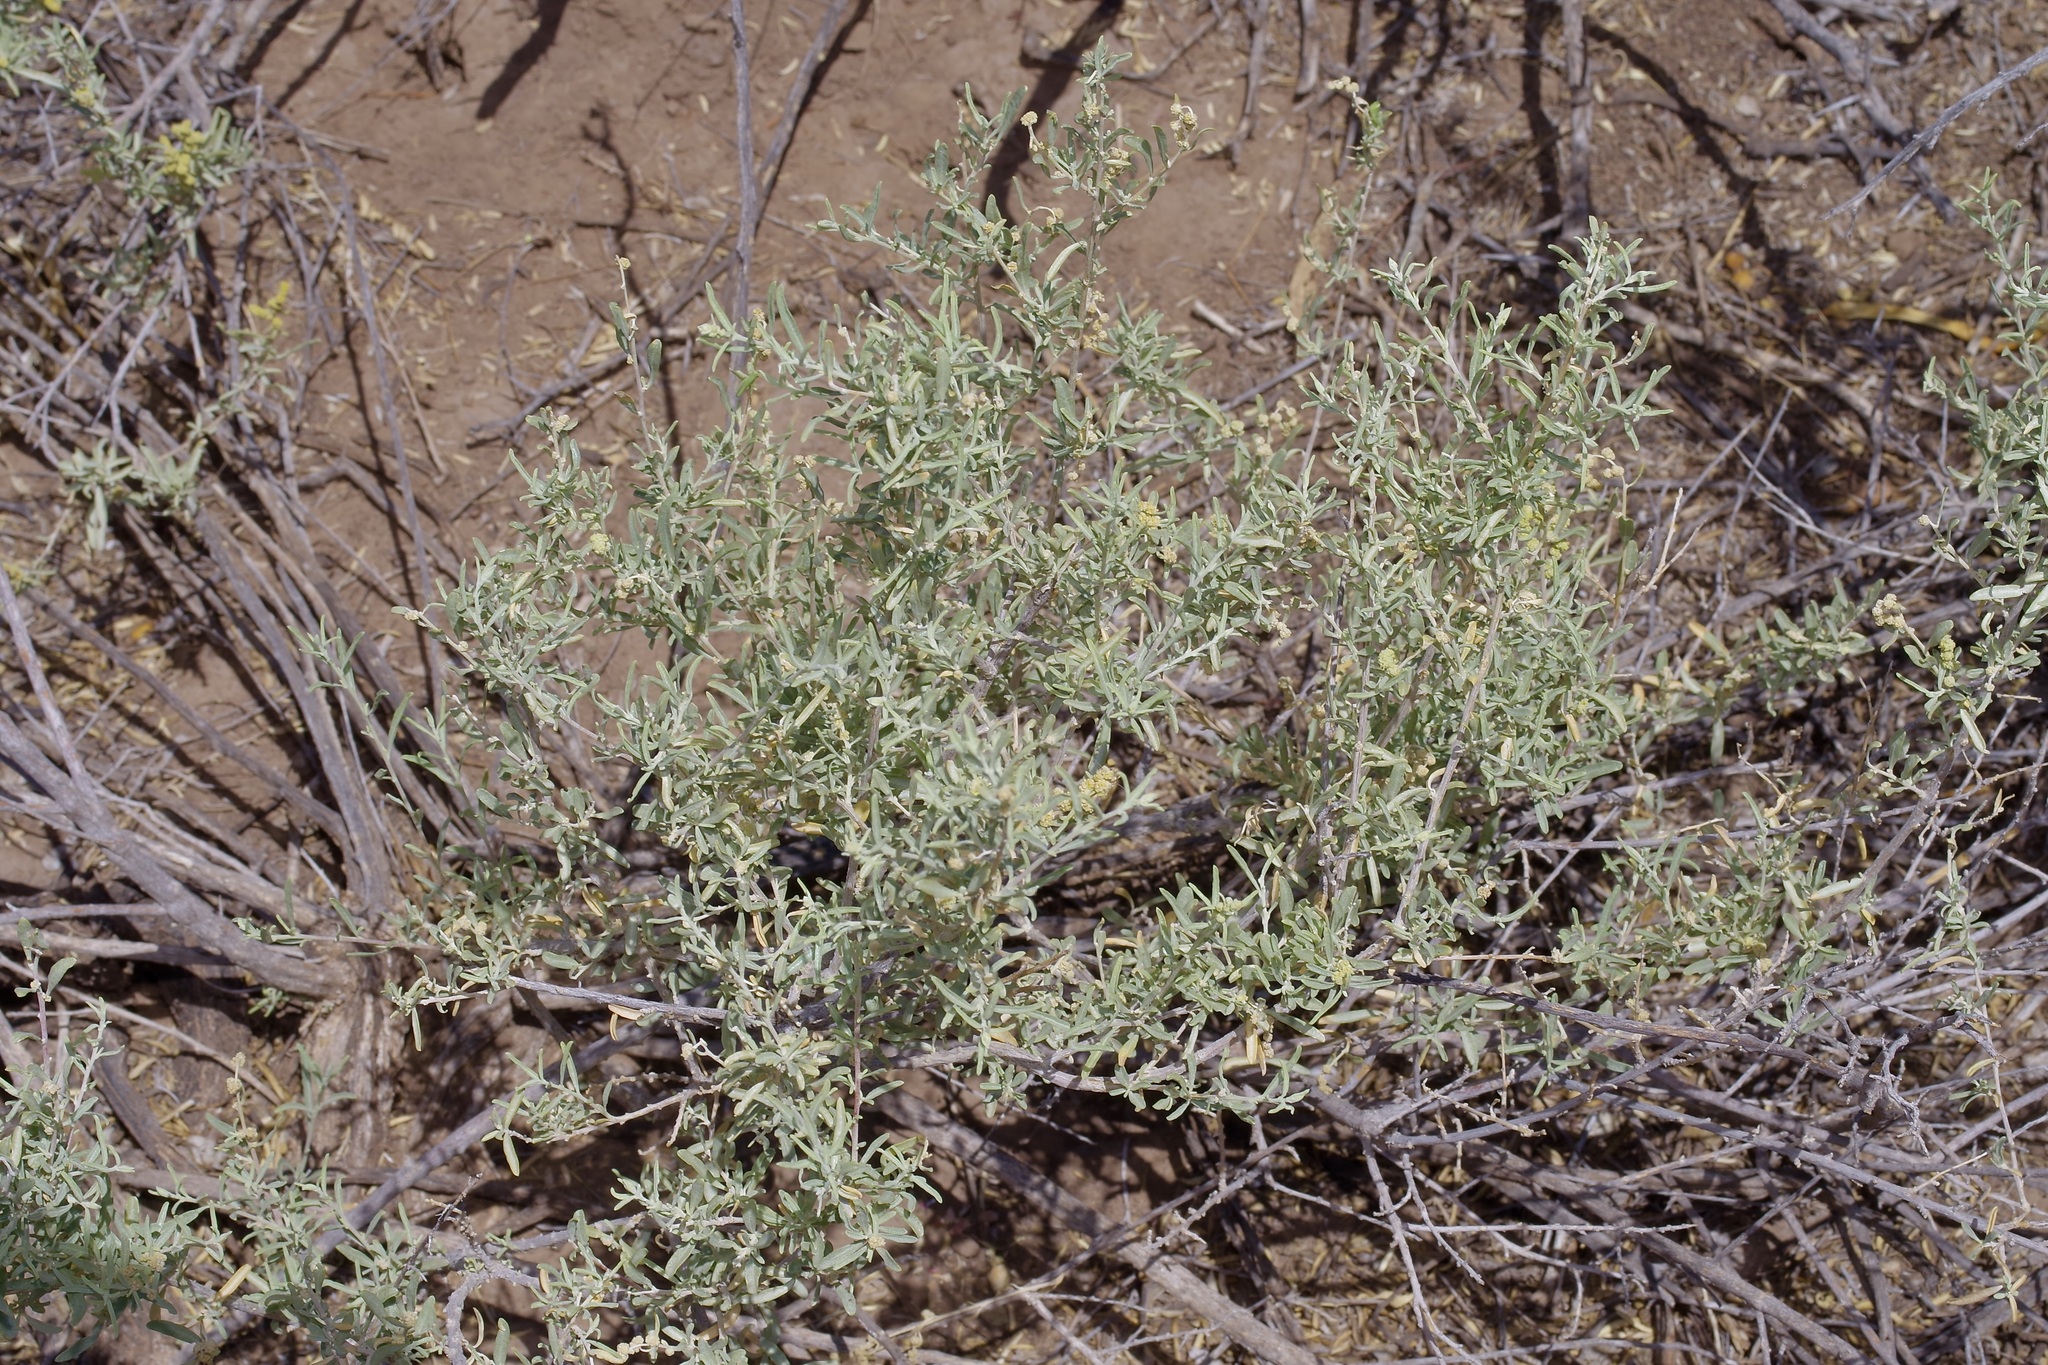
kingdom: Plantae
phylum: Tracheophyta
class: Magnoliopsida
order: Caryophyllales
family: Amaranthaceae
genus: Atriplex
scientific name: Atriplex canescens
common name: Four-wing saltbush
